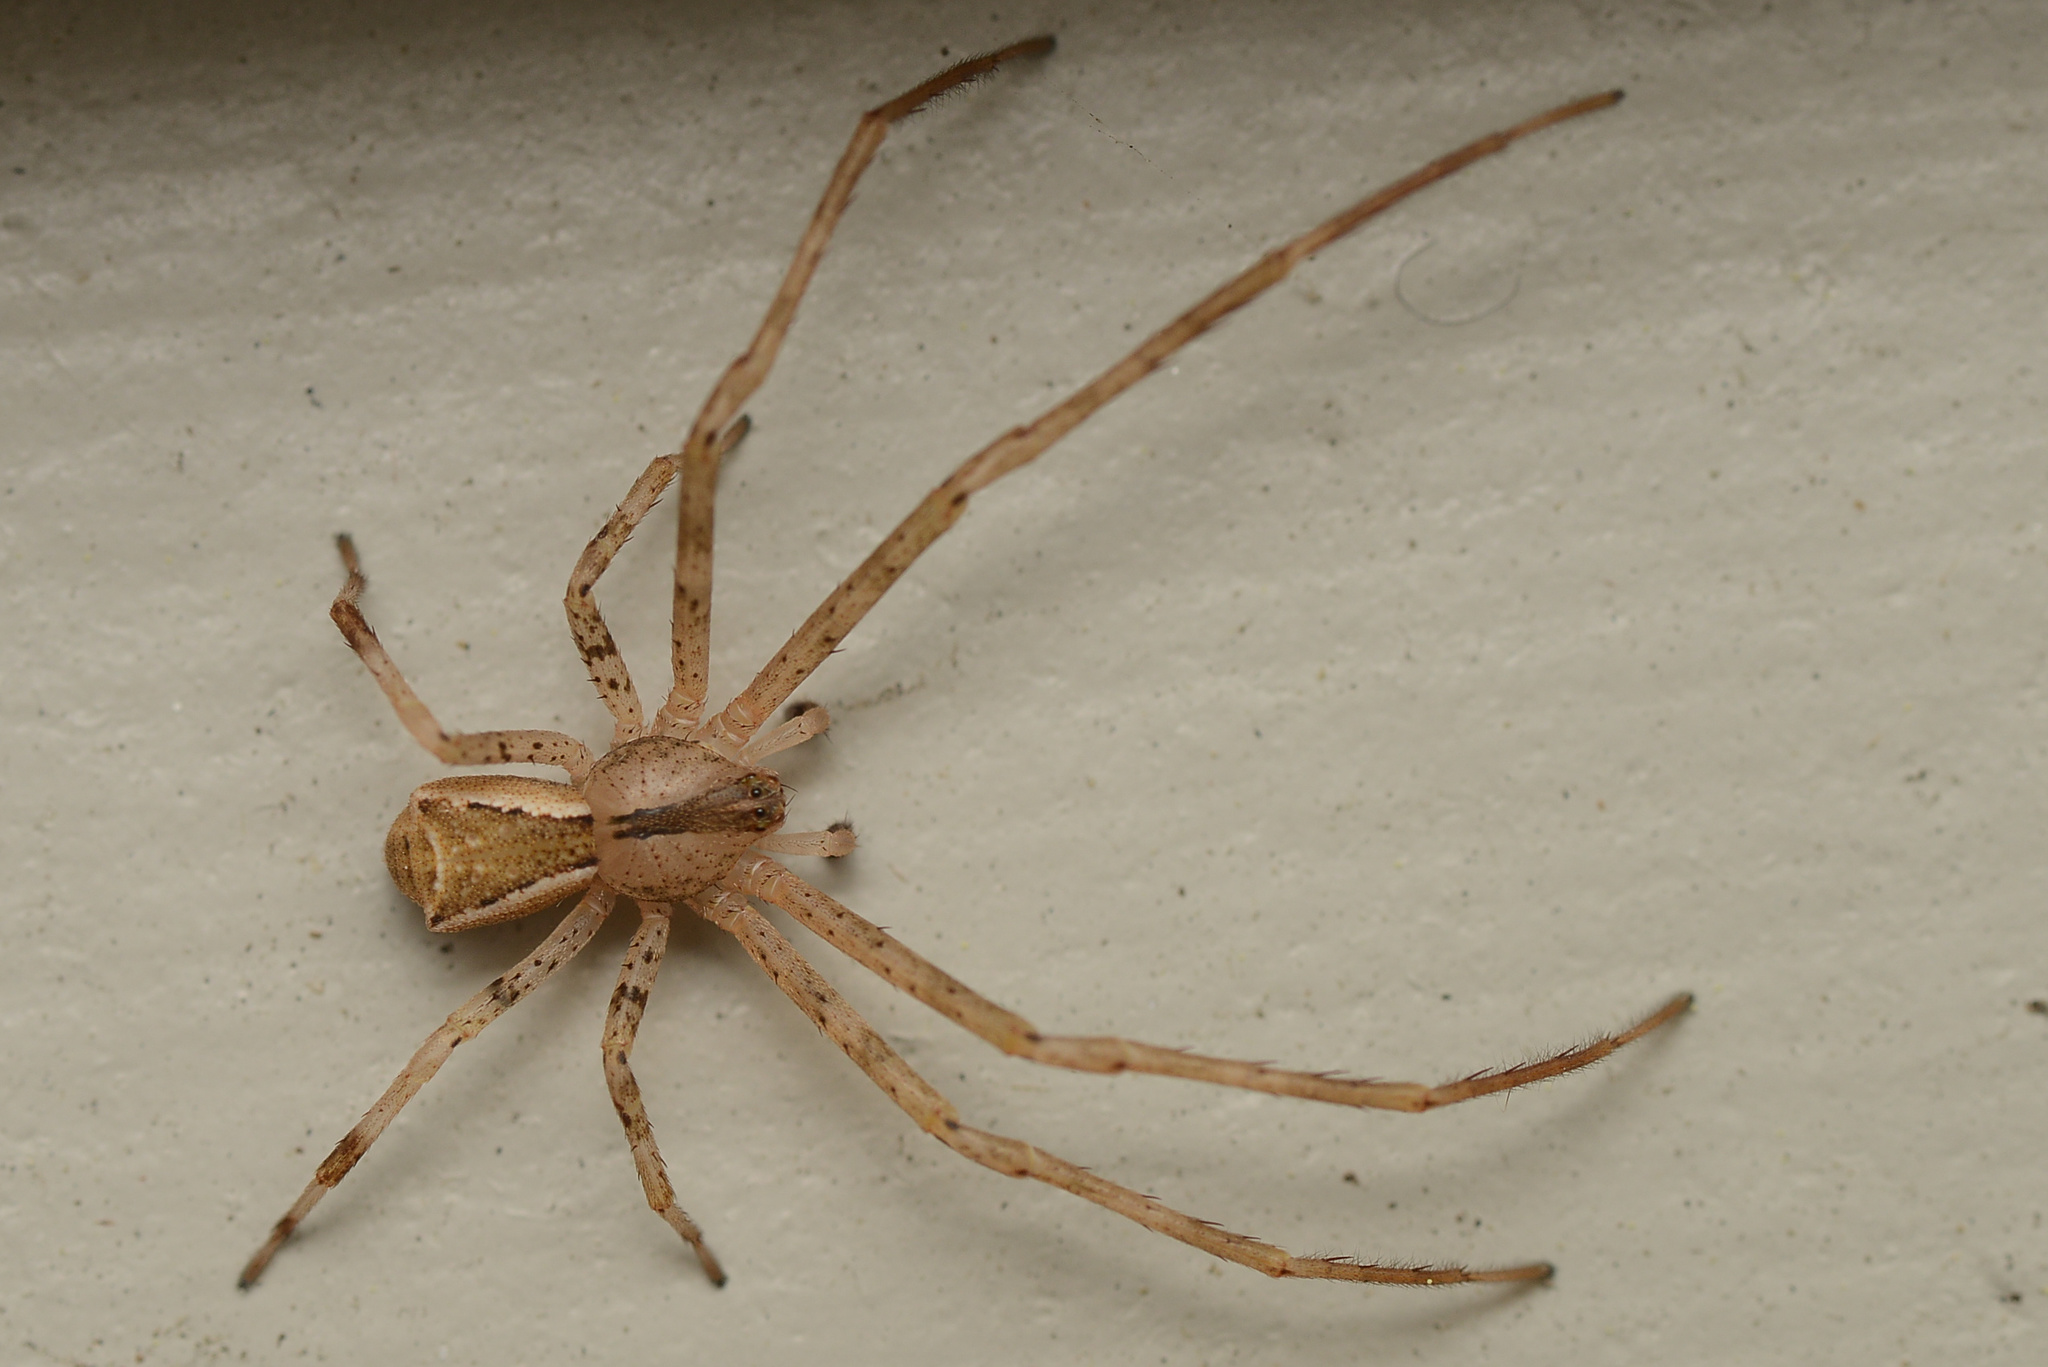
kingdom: Animalia
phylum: Arthropoda
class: Arachnida
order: Araneae
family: Thomisidae
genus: Sidymella
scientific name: Sidymella longipes
